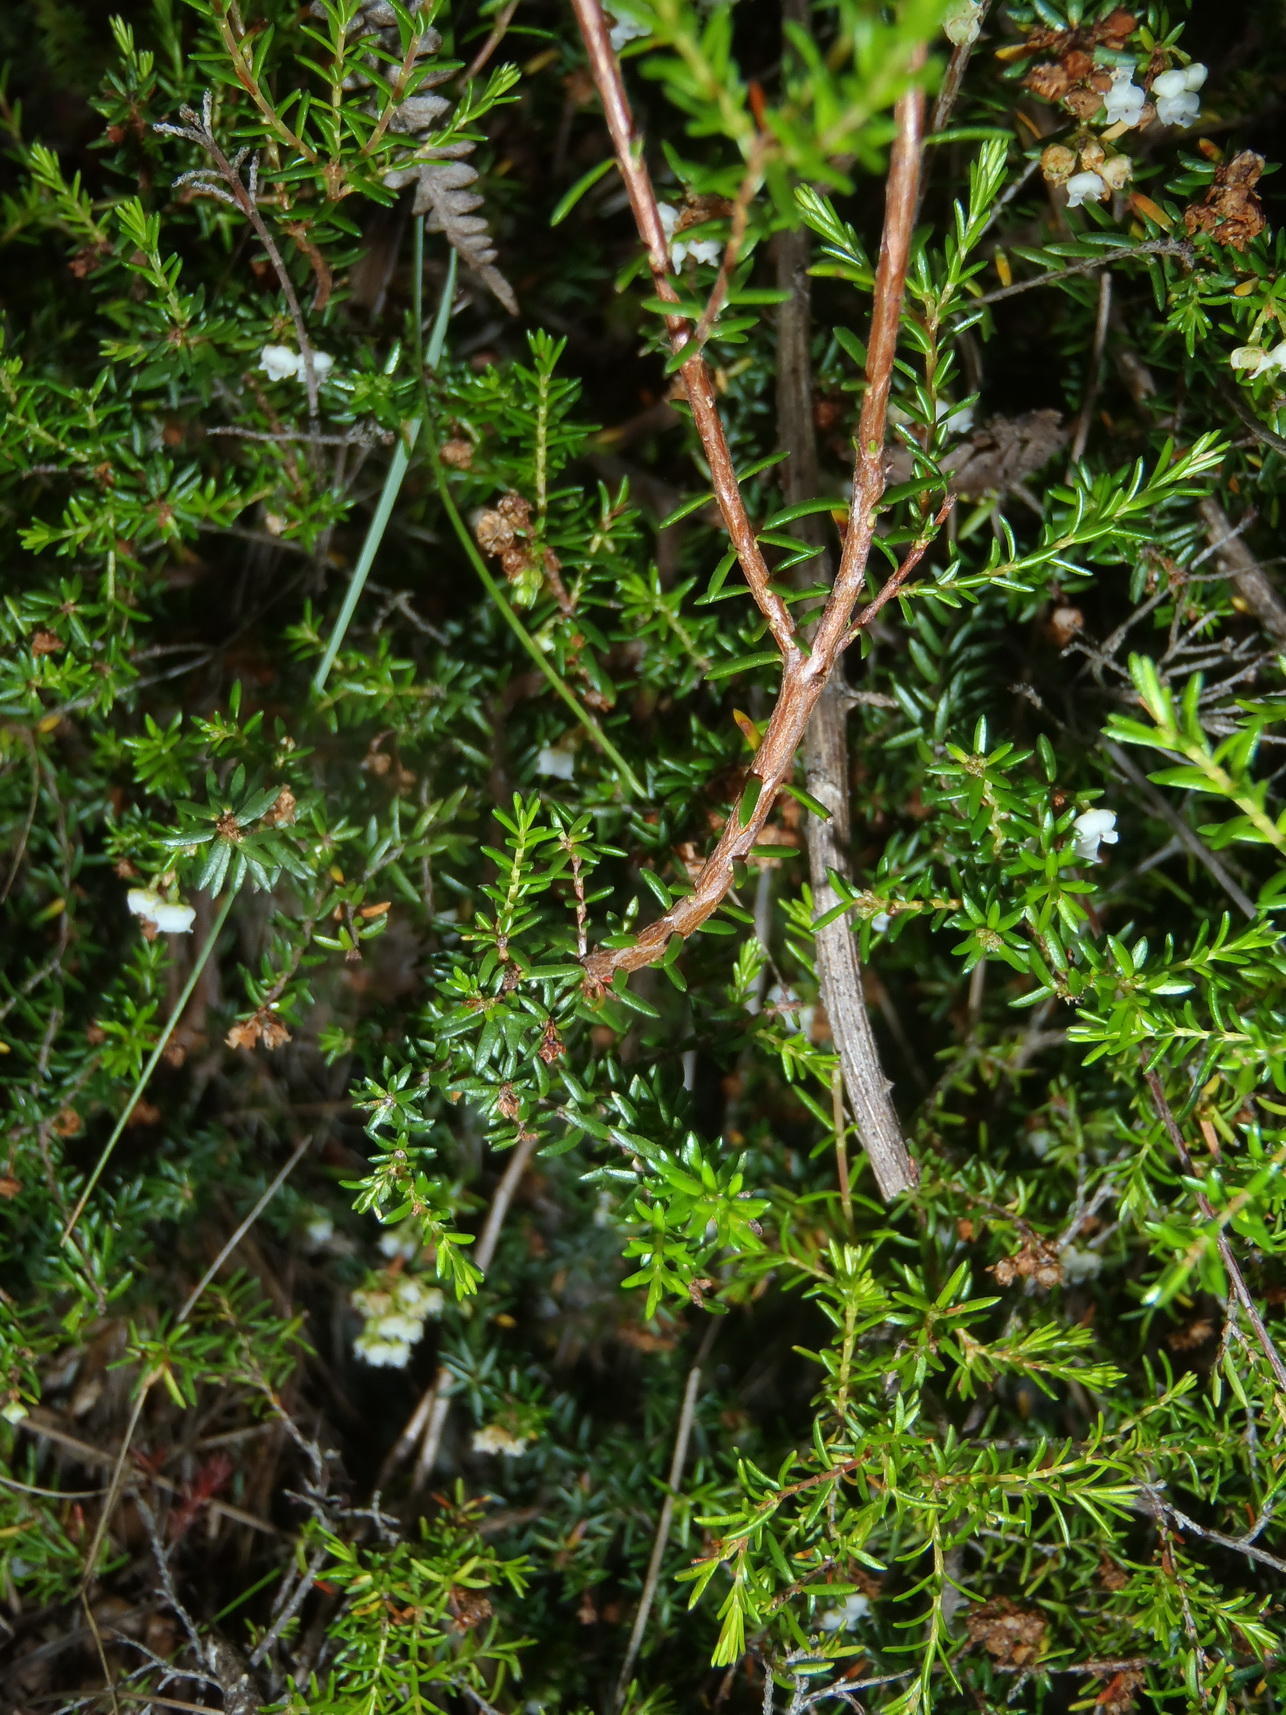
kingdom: Plantae
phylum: Tracheophyta
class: Magnoliopsida
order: Ericales
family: Ericaceae
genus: Erica
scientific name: Erica tenuis
